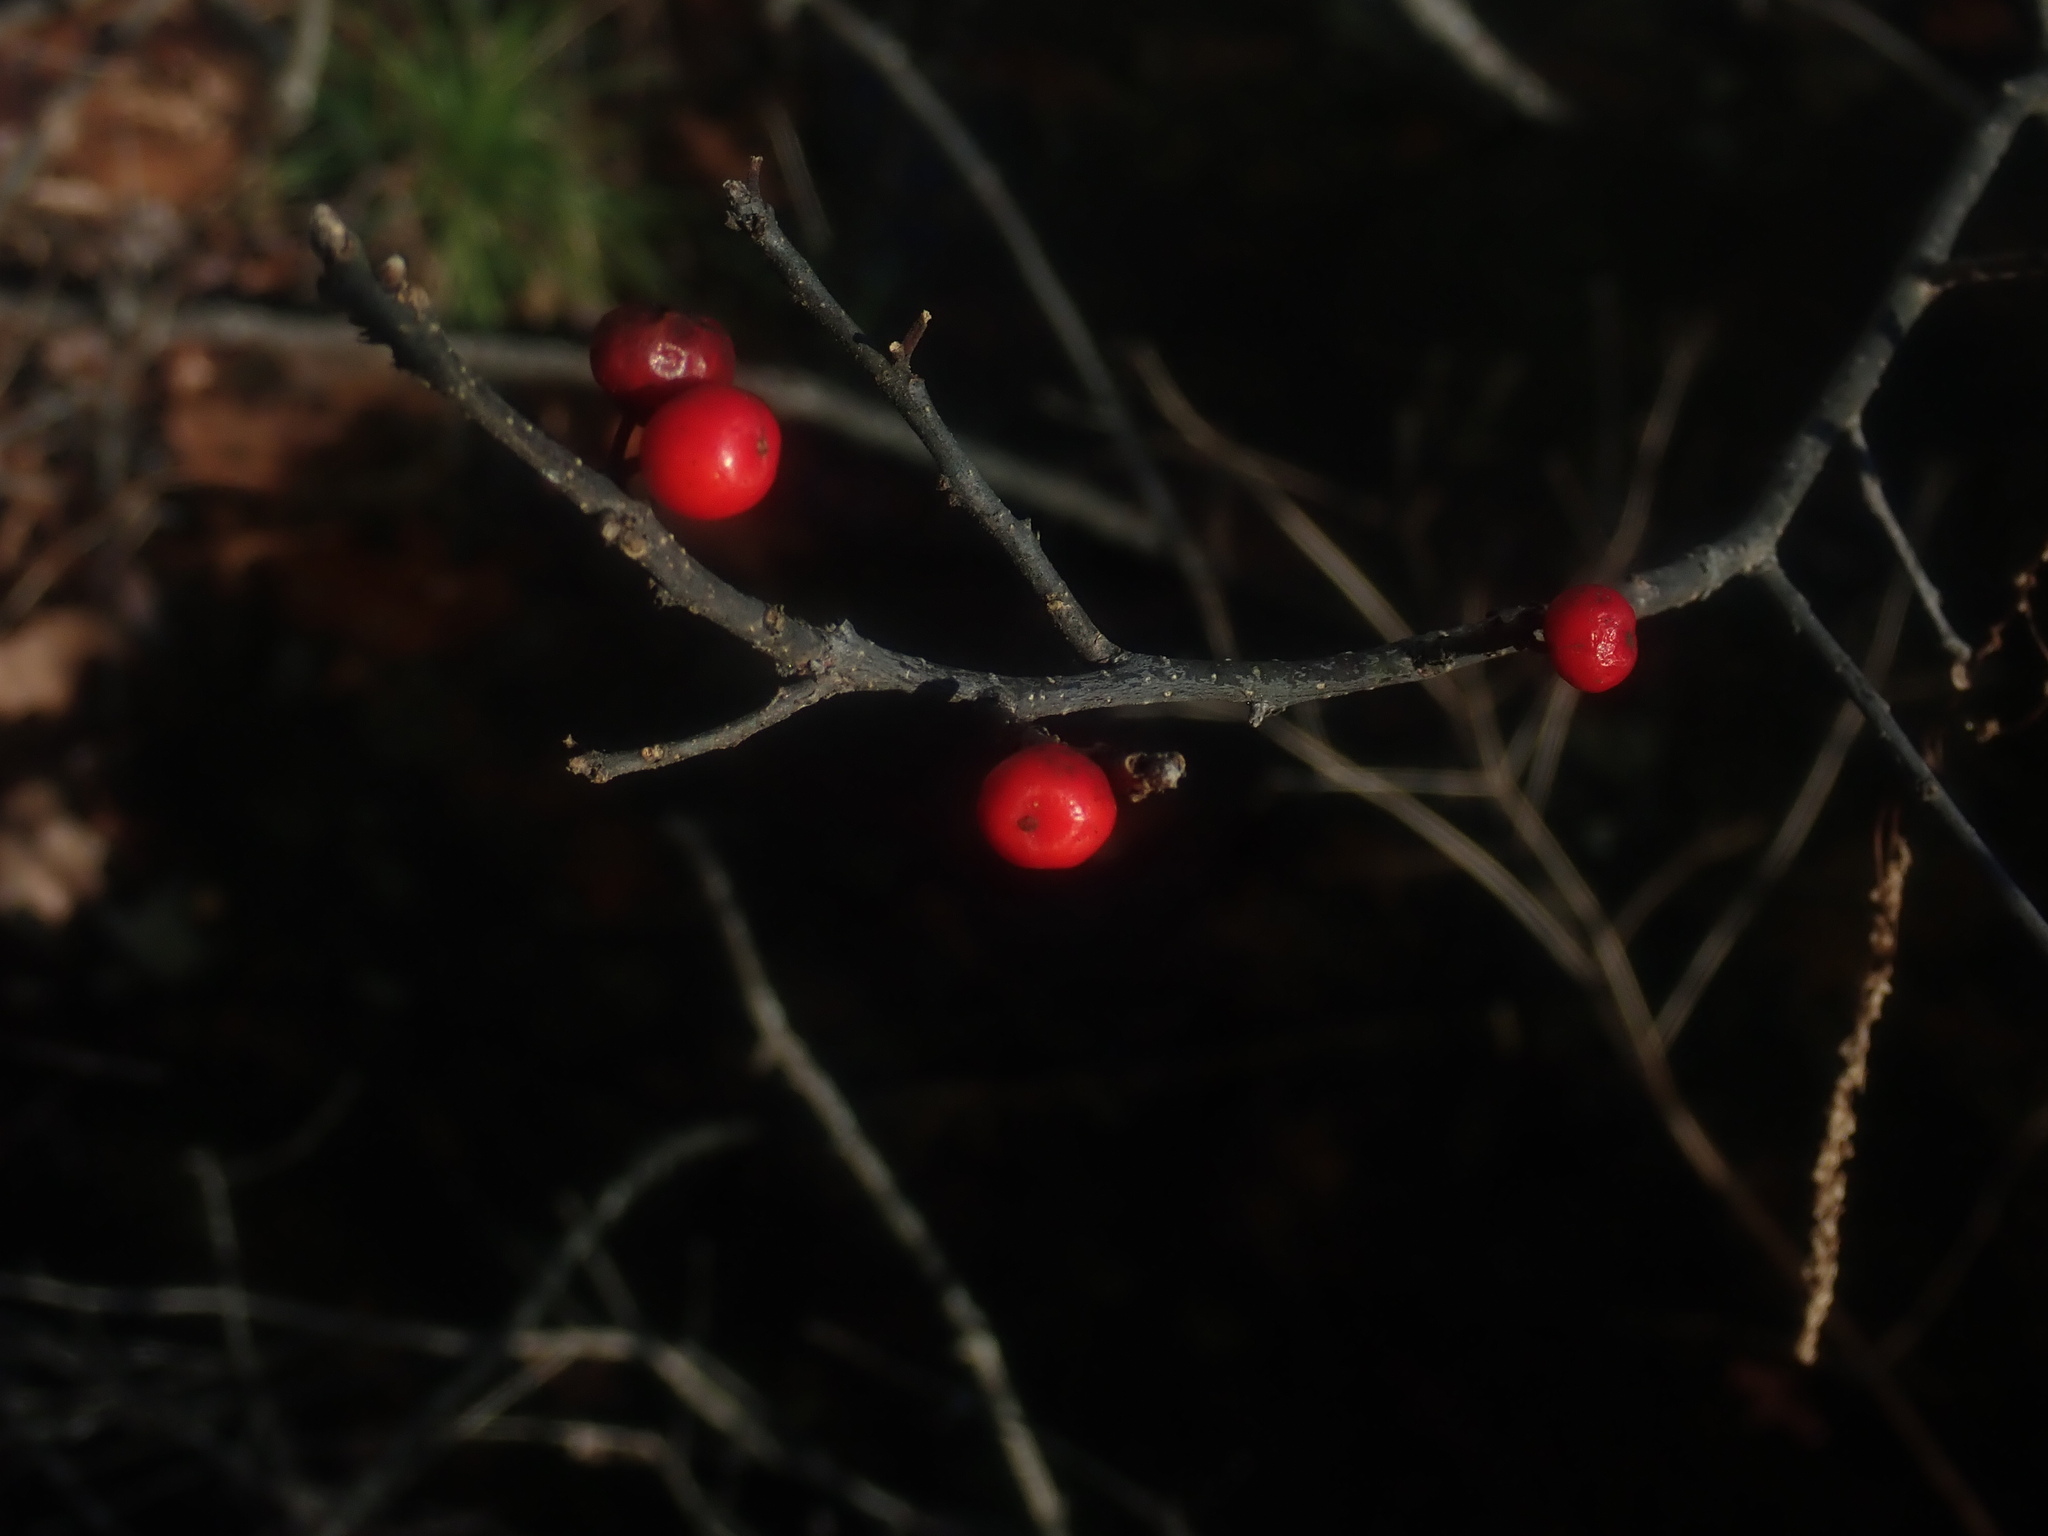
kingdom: Plantae
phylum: Tracheophyta
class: Magnoliopsida
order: Aquifoliales
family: Aquifoliaceae
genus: Ilex
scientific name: Ilex verticillata
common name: Virginia winterberry
